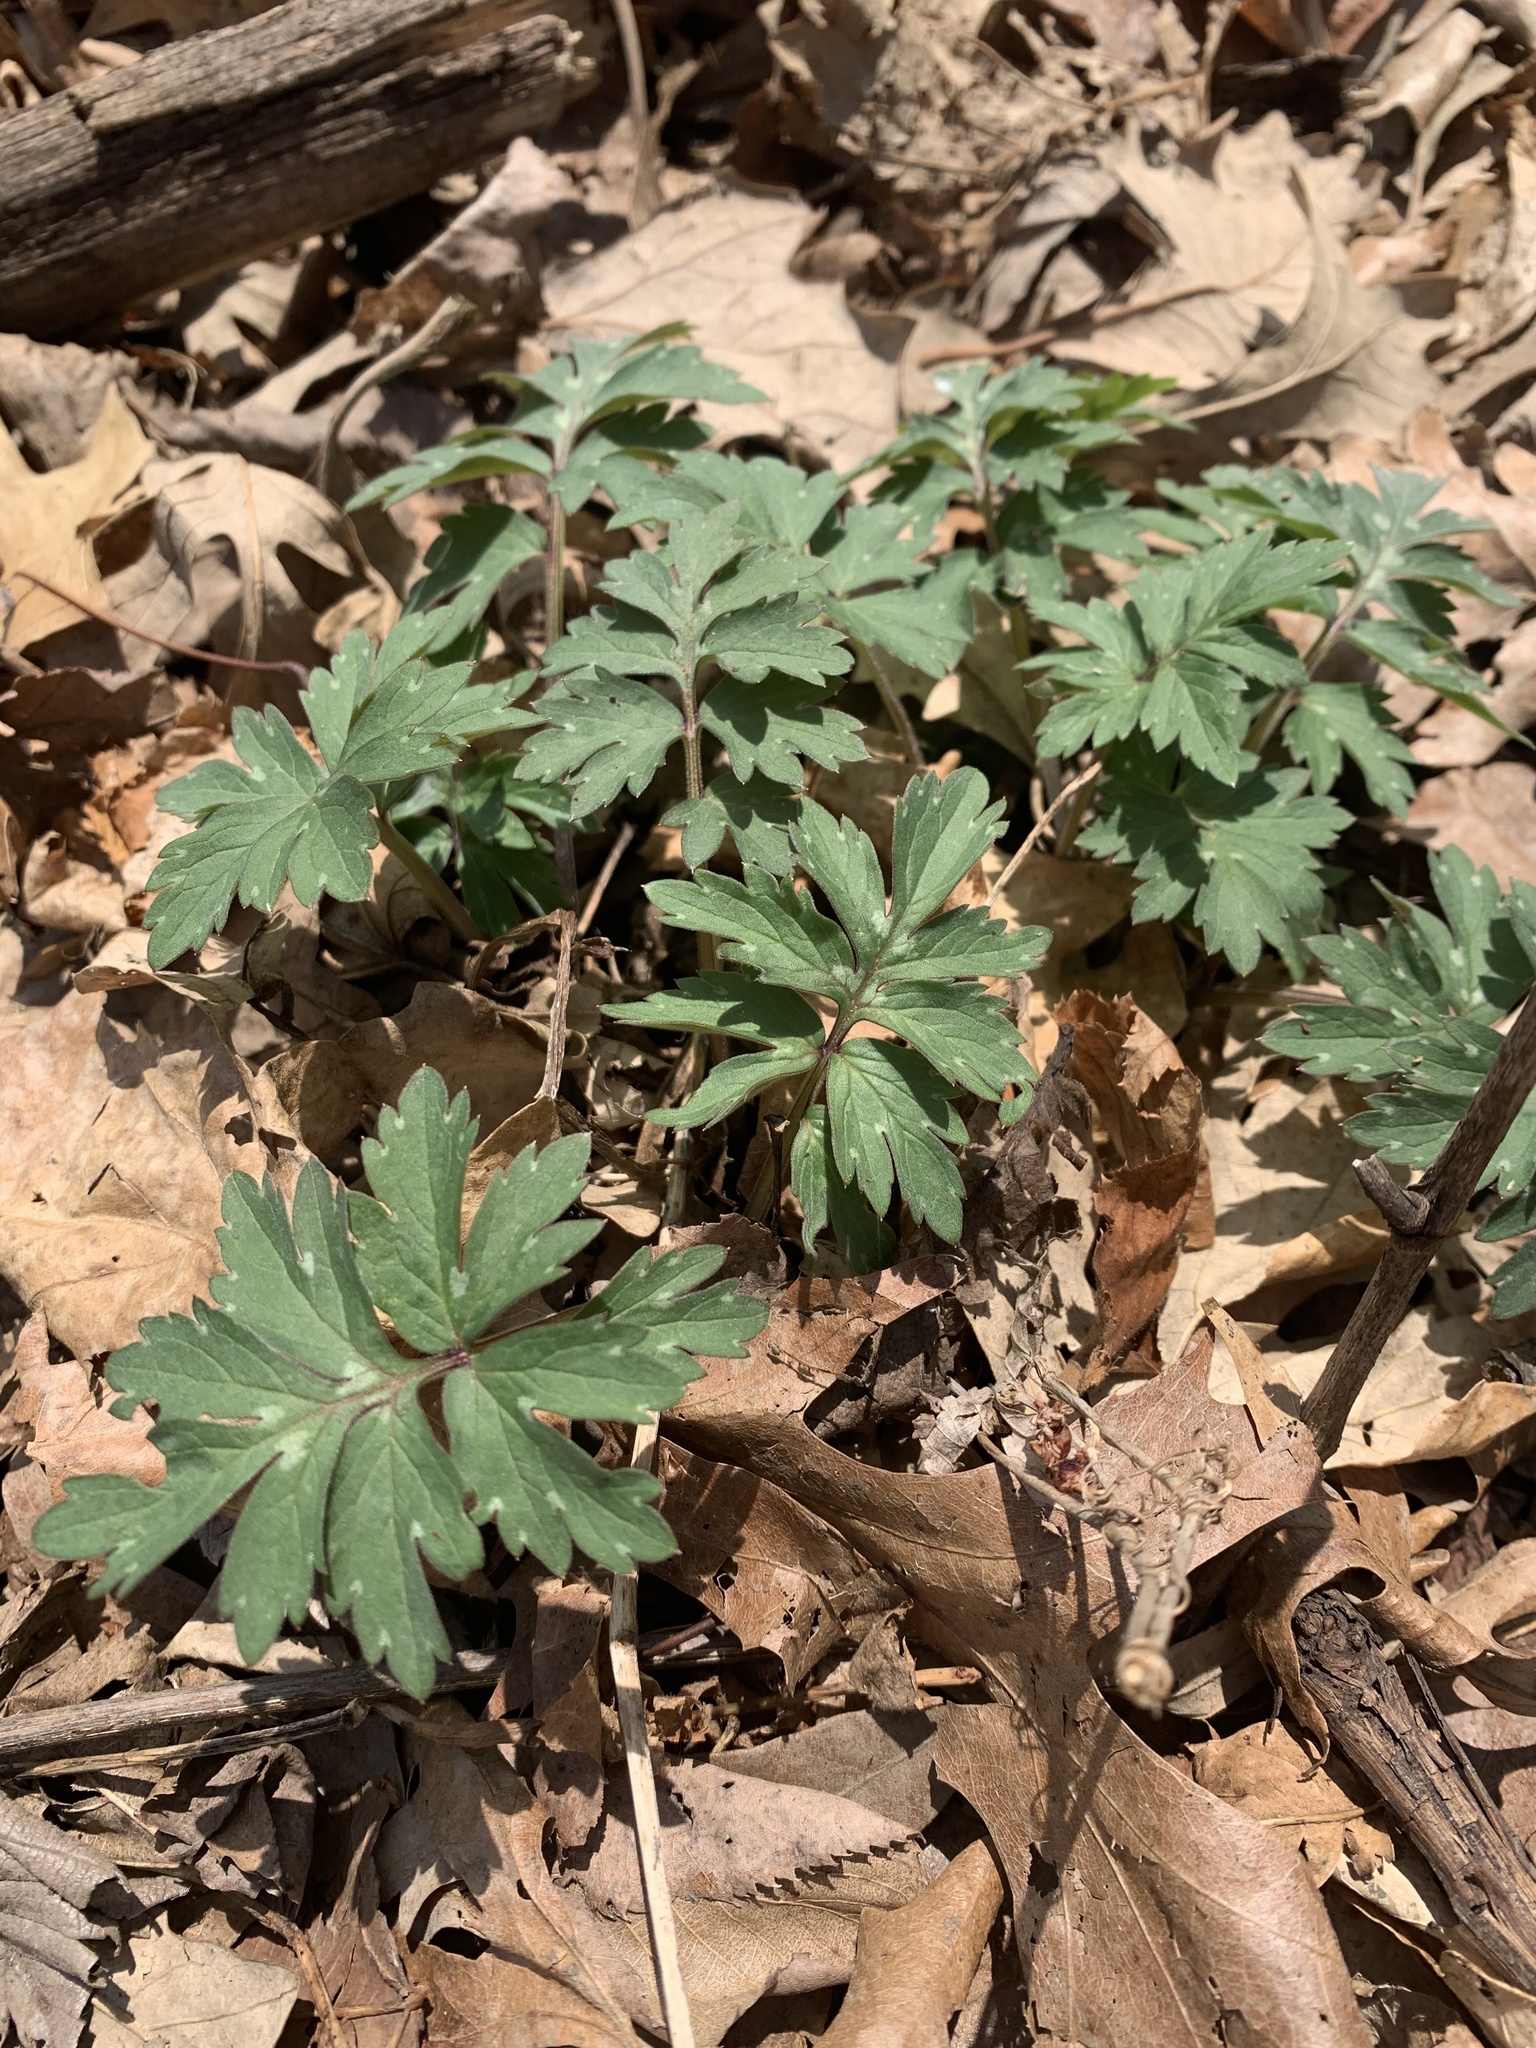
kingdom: Plantae
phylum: Tracheophyta
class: Magnoliopsida
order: Boraginales
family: Hydrophyllaceae
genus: Hydrophyllum
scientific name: Hydrophyllum virginianum
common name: Virginia waterleaf
